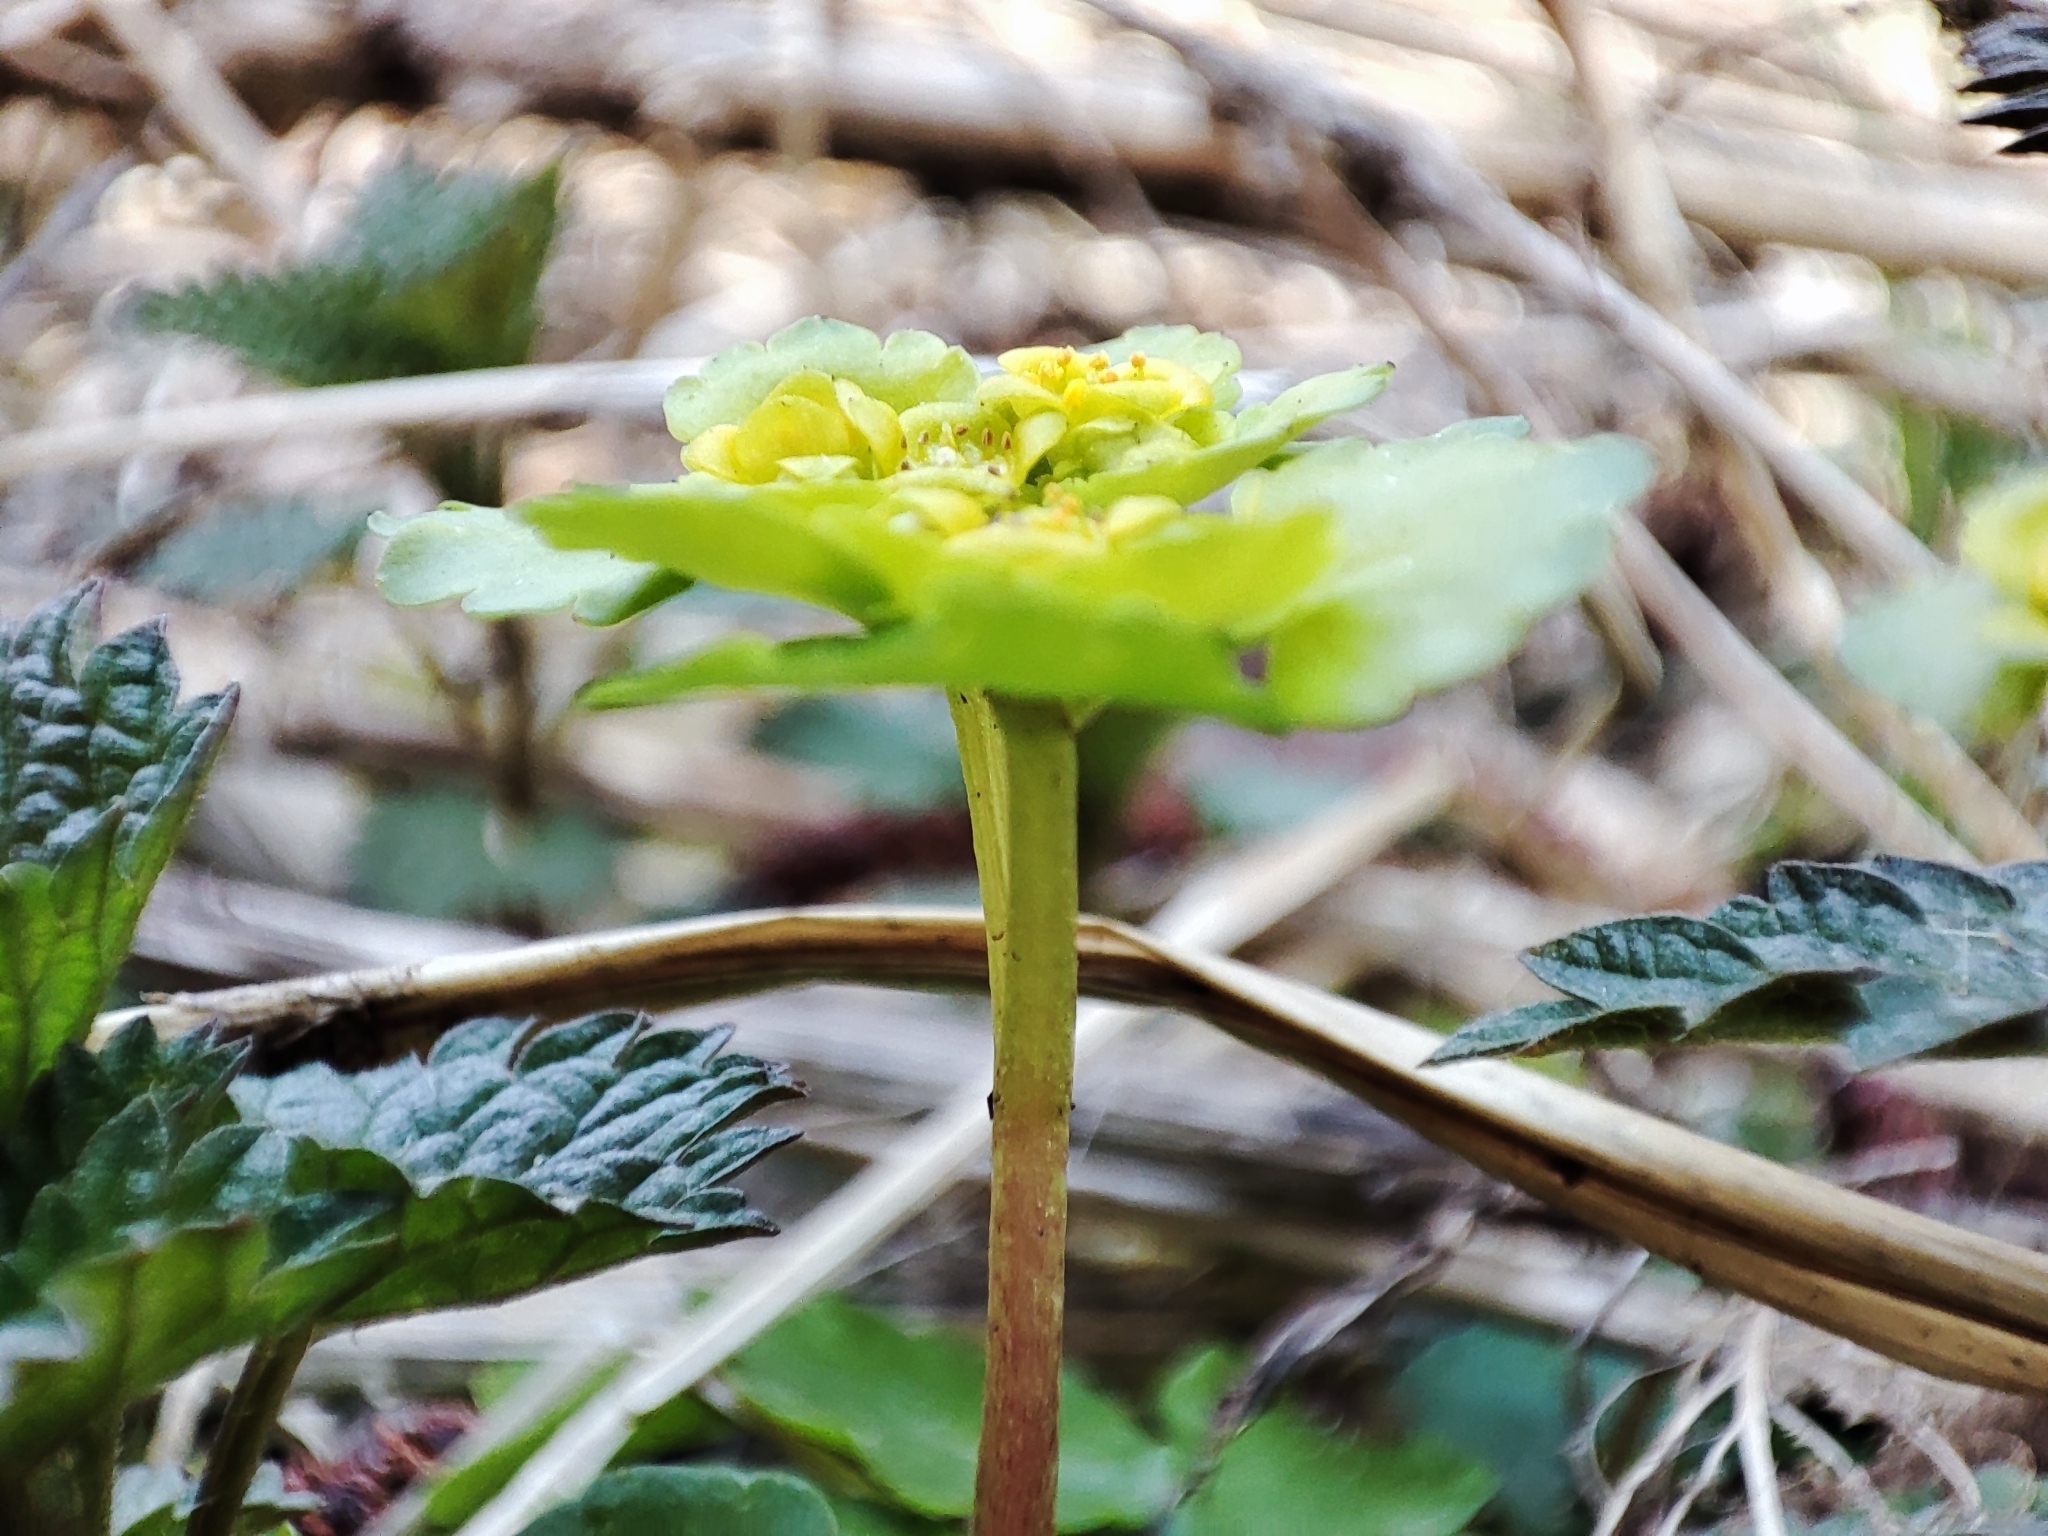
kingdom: Plantae
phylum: Tracheophyta
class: Magnoliopsida
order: Saxifragales
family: Saxifragaceae
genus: Chrysosplenium
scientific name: Chrysosplenium alternifolium
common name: Alternate-leaved golden-saxifrage
